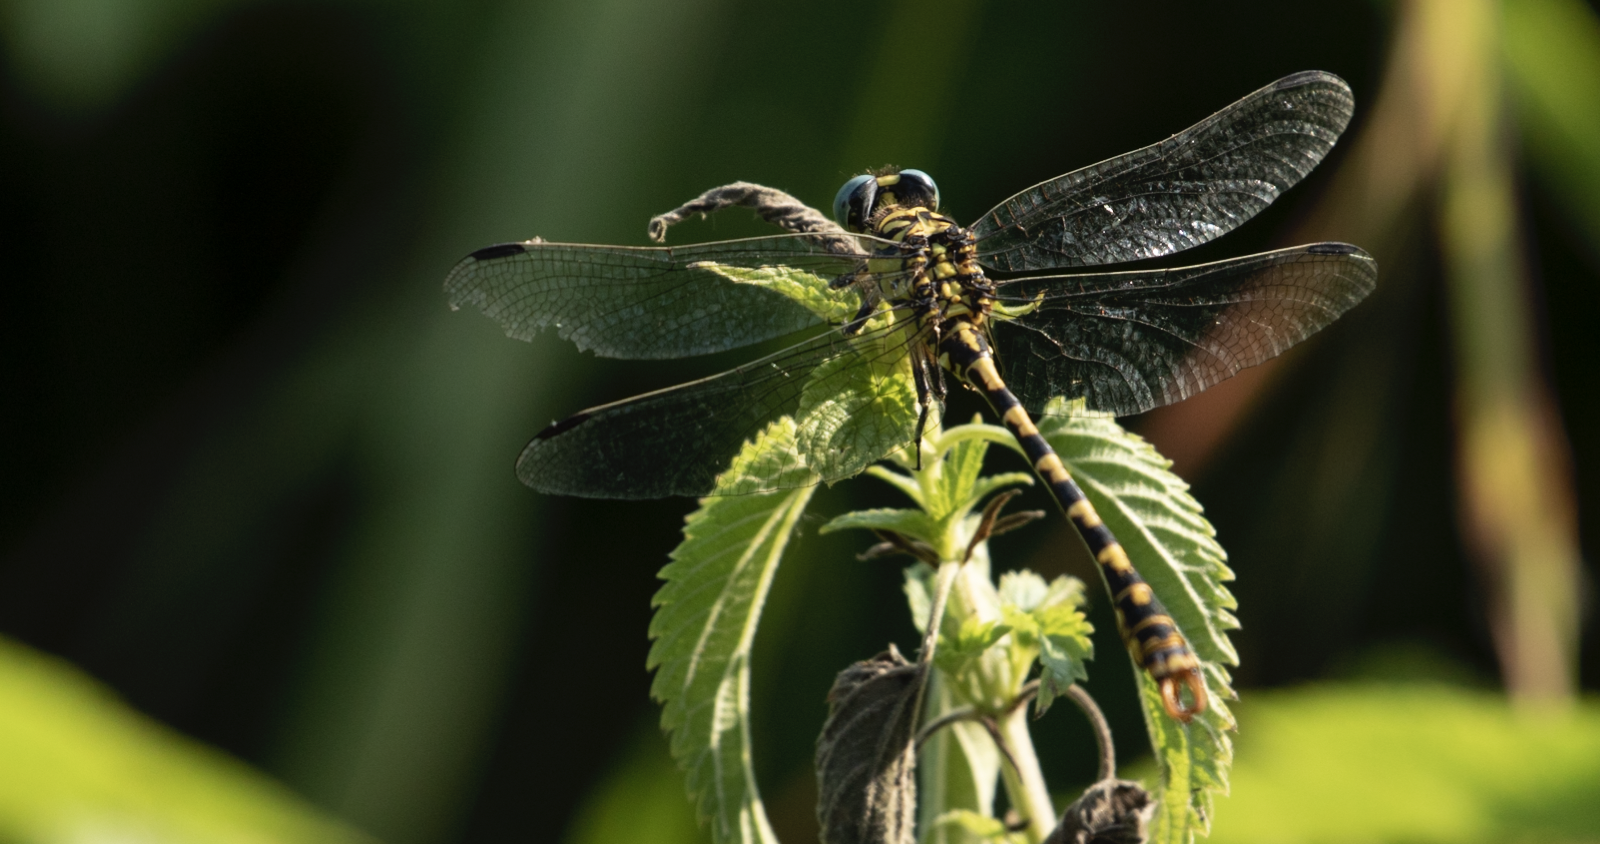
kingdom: Animalia
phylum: Arthropoda
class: Insecta
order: Odonata
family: Gomphidae
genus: Onychogomphus
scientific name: Onychogomphus forcipatus
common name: Small pincertail
